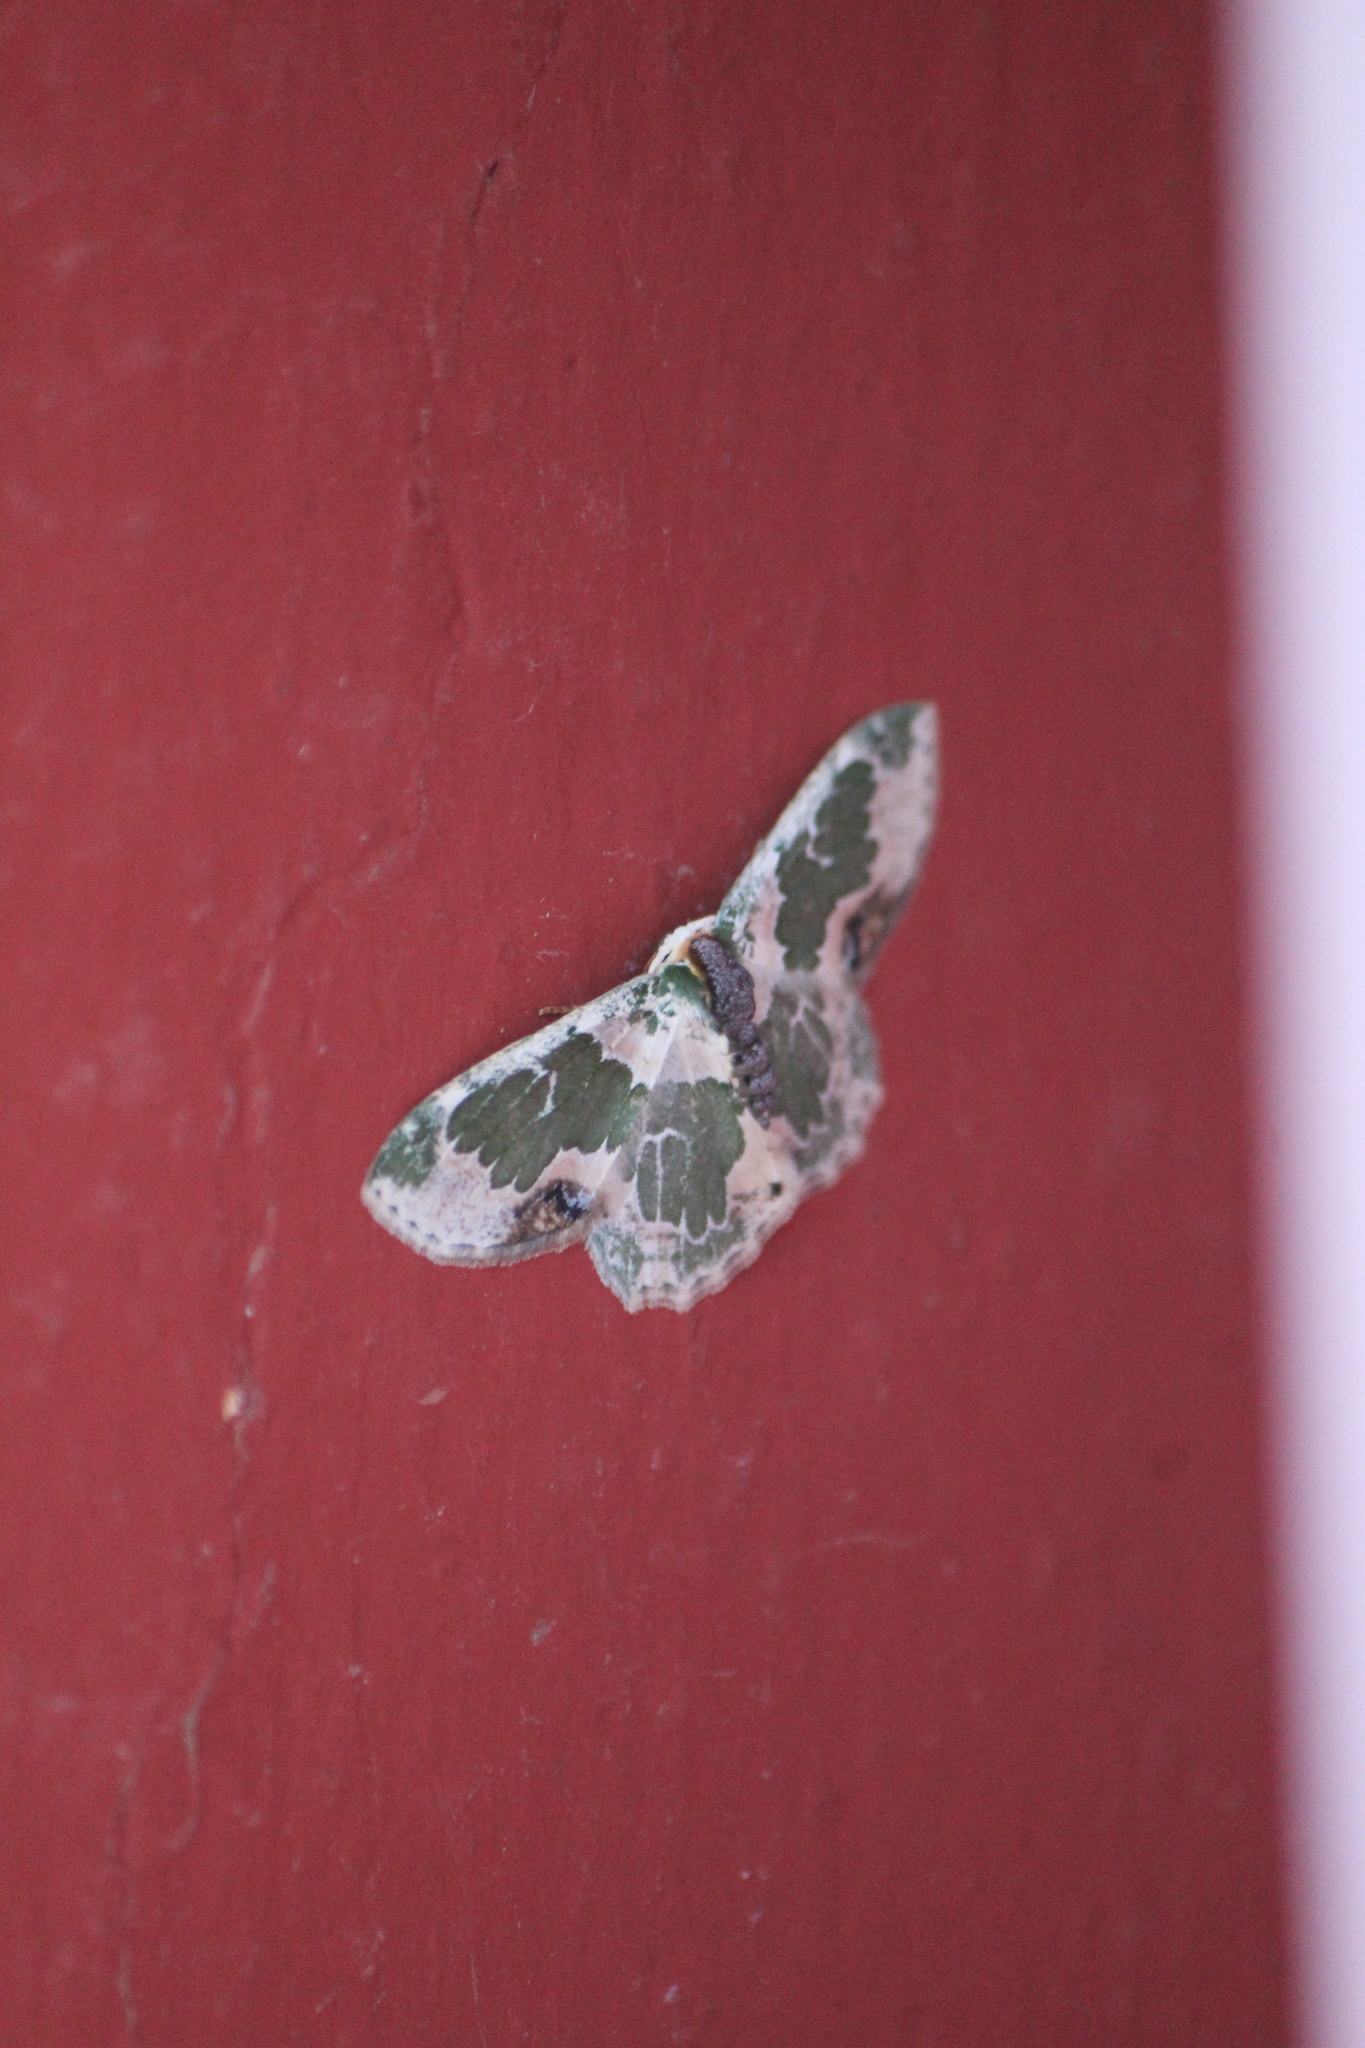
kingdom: Animalia
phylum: Arthropoda
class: Insecta
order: Lepidoptera
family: Geometridae
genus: Lophochorista
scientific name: Lophochorista calliope
